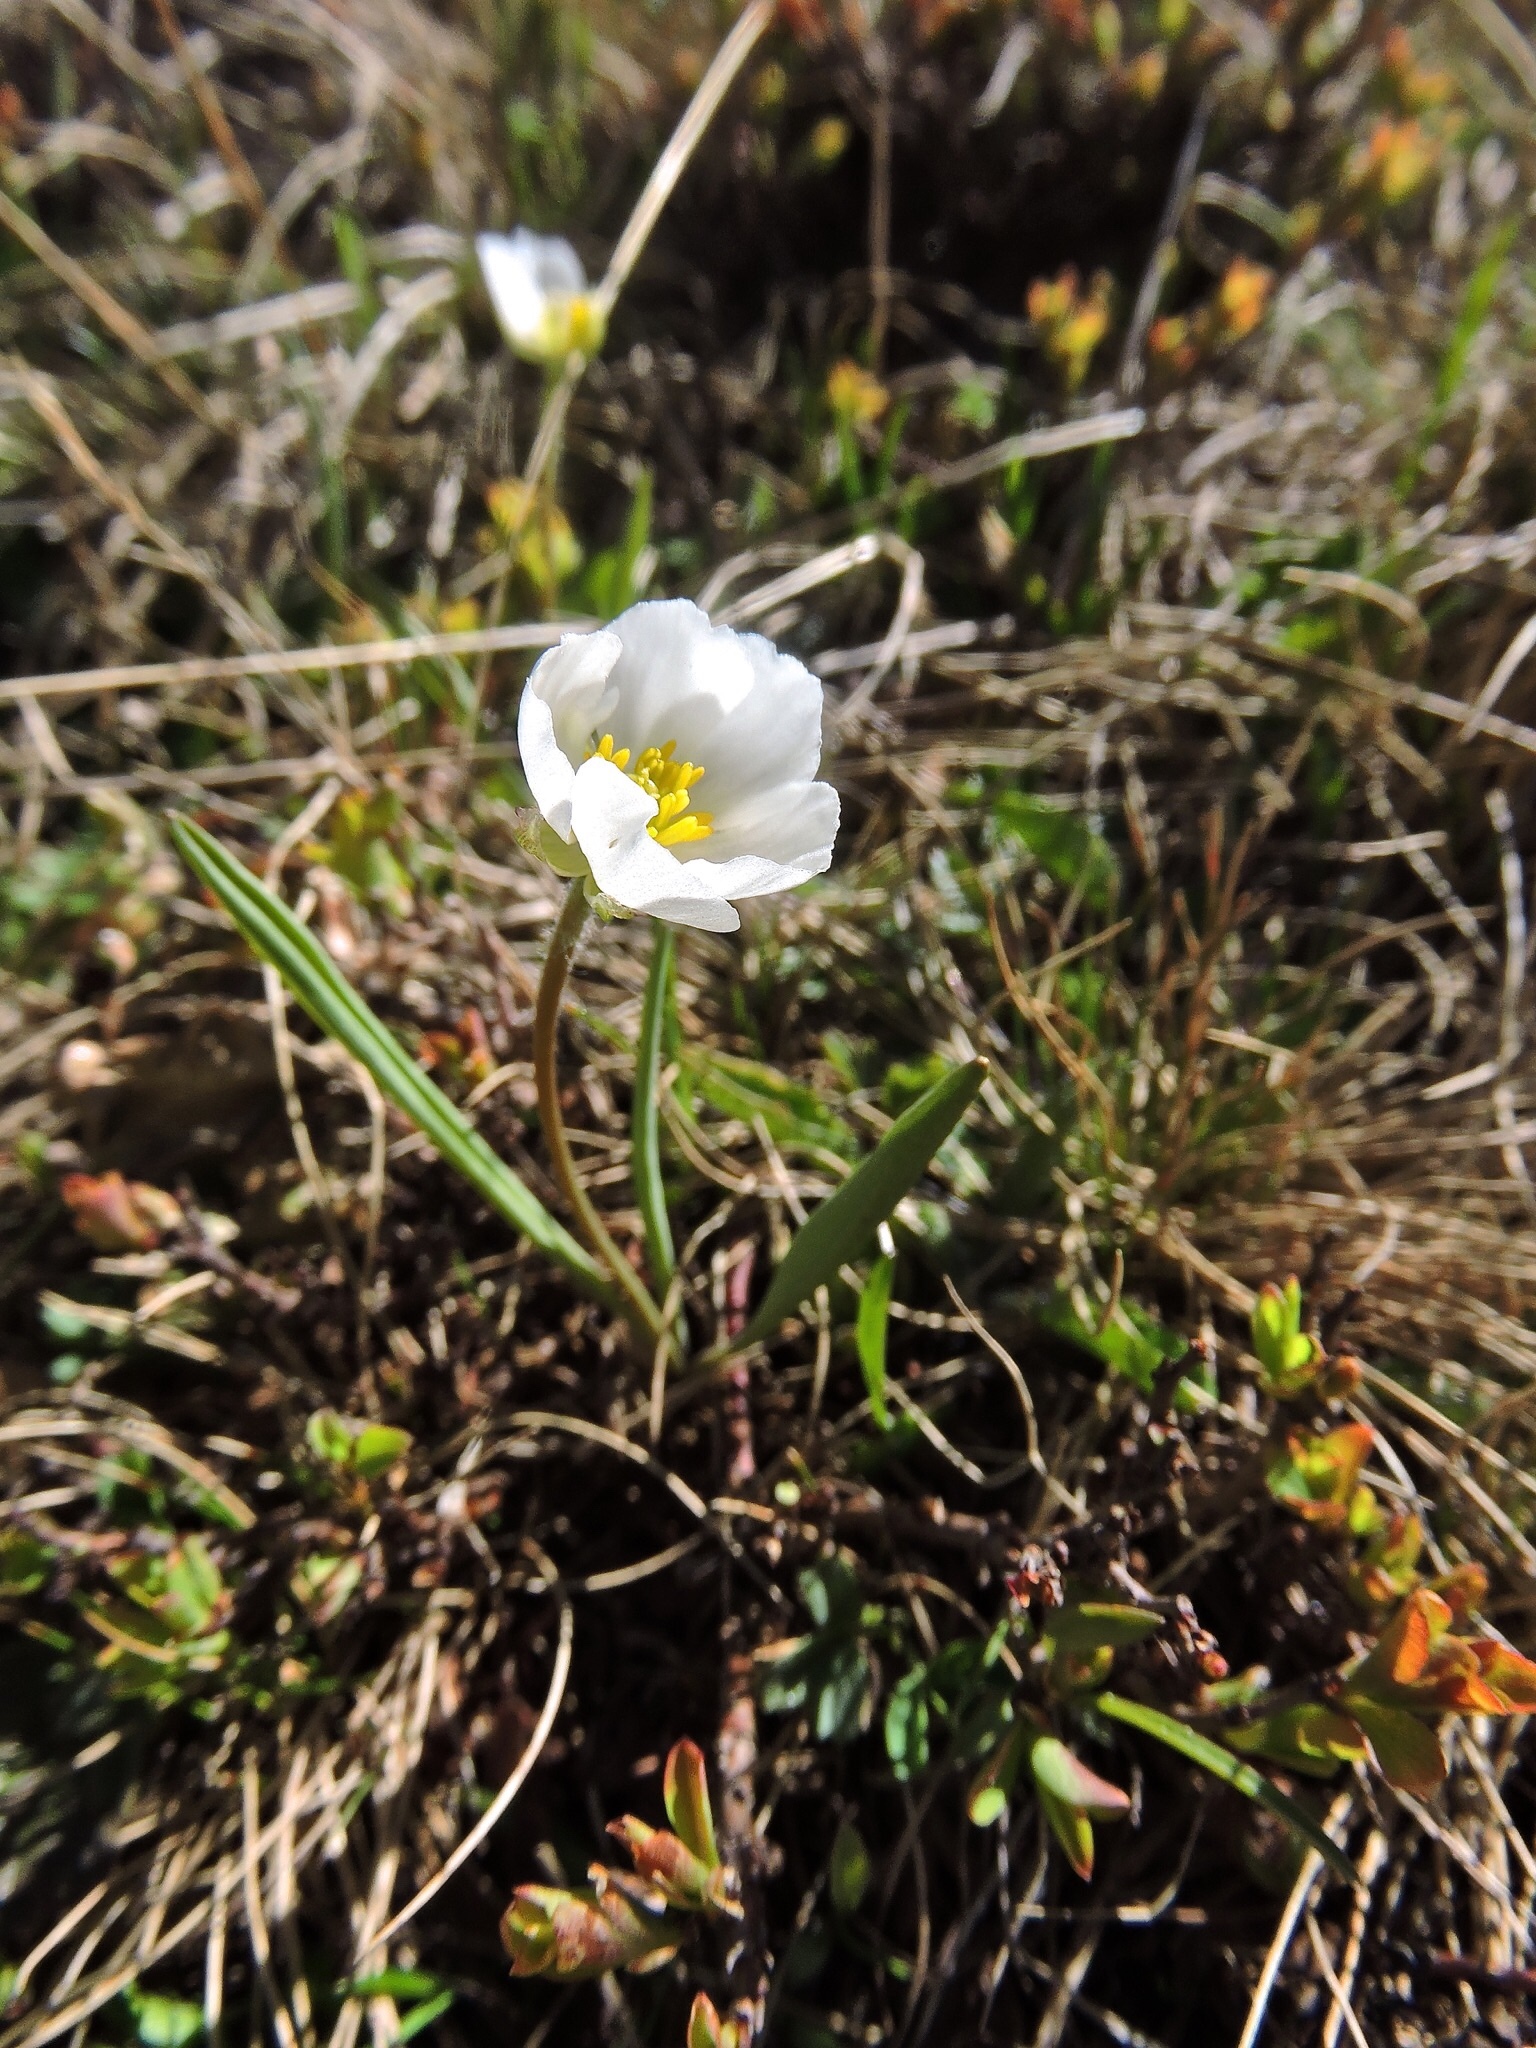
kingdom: Plantae
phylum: Tracheophyta
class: Magnoliopsida
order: Ranunculales
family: Ranunculaceae
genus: Ranunculus
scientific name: Ranunculus kuepferi
